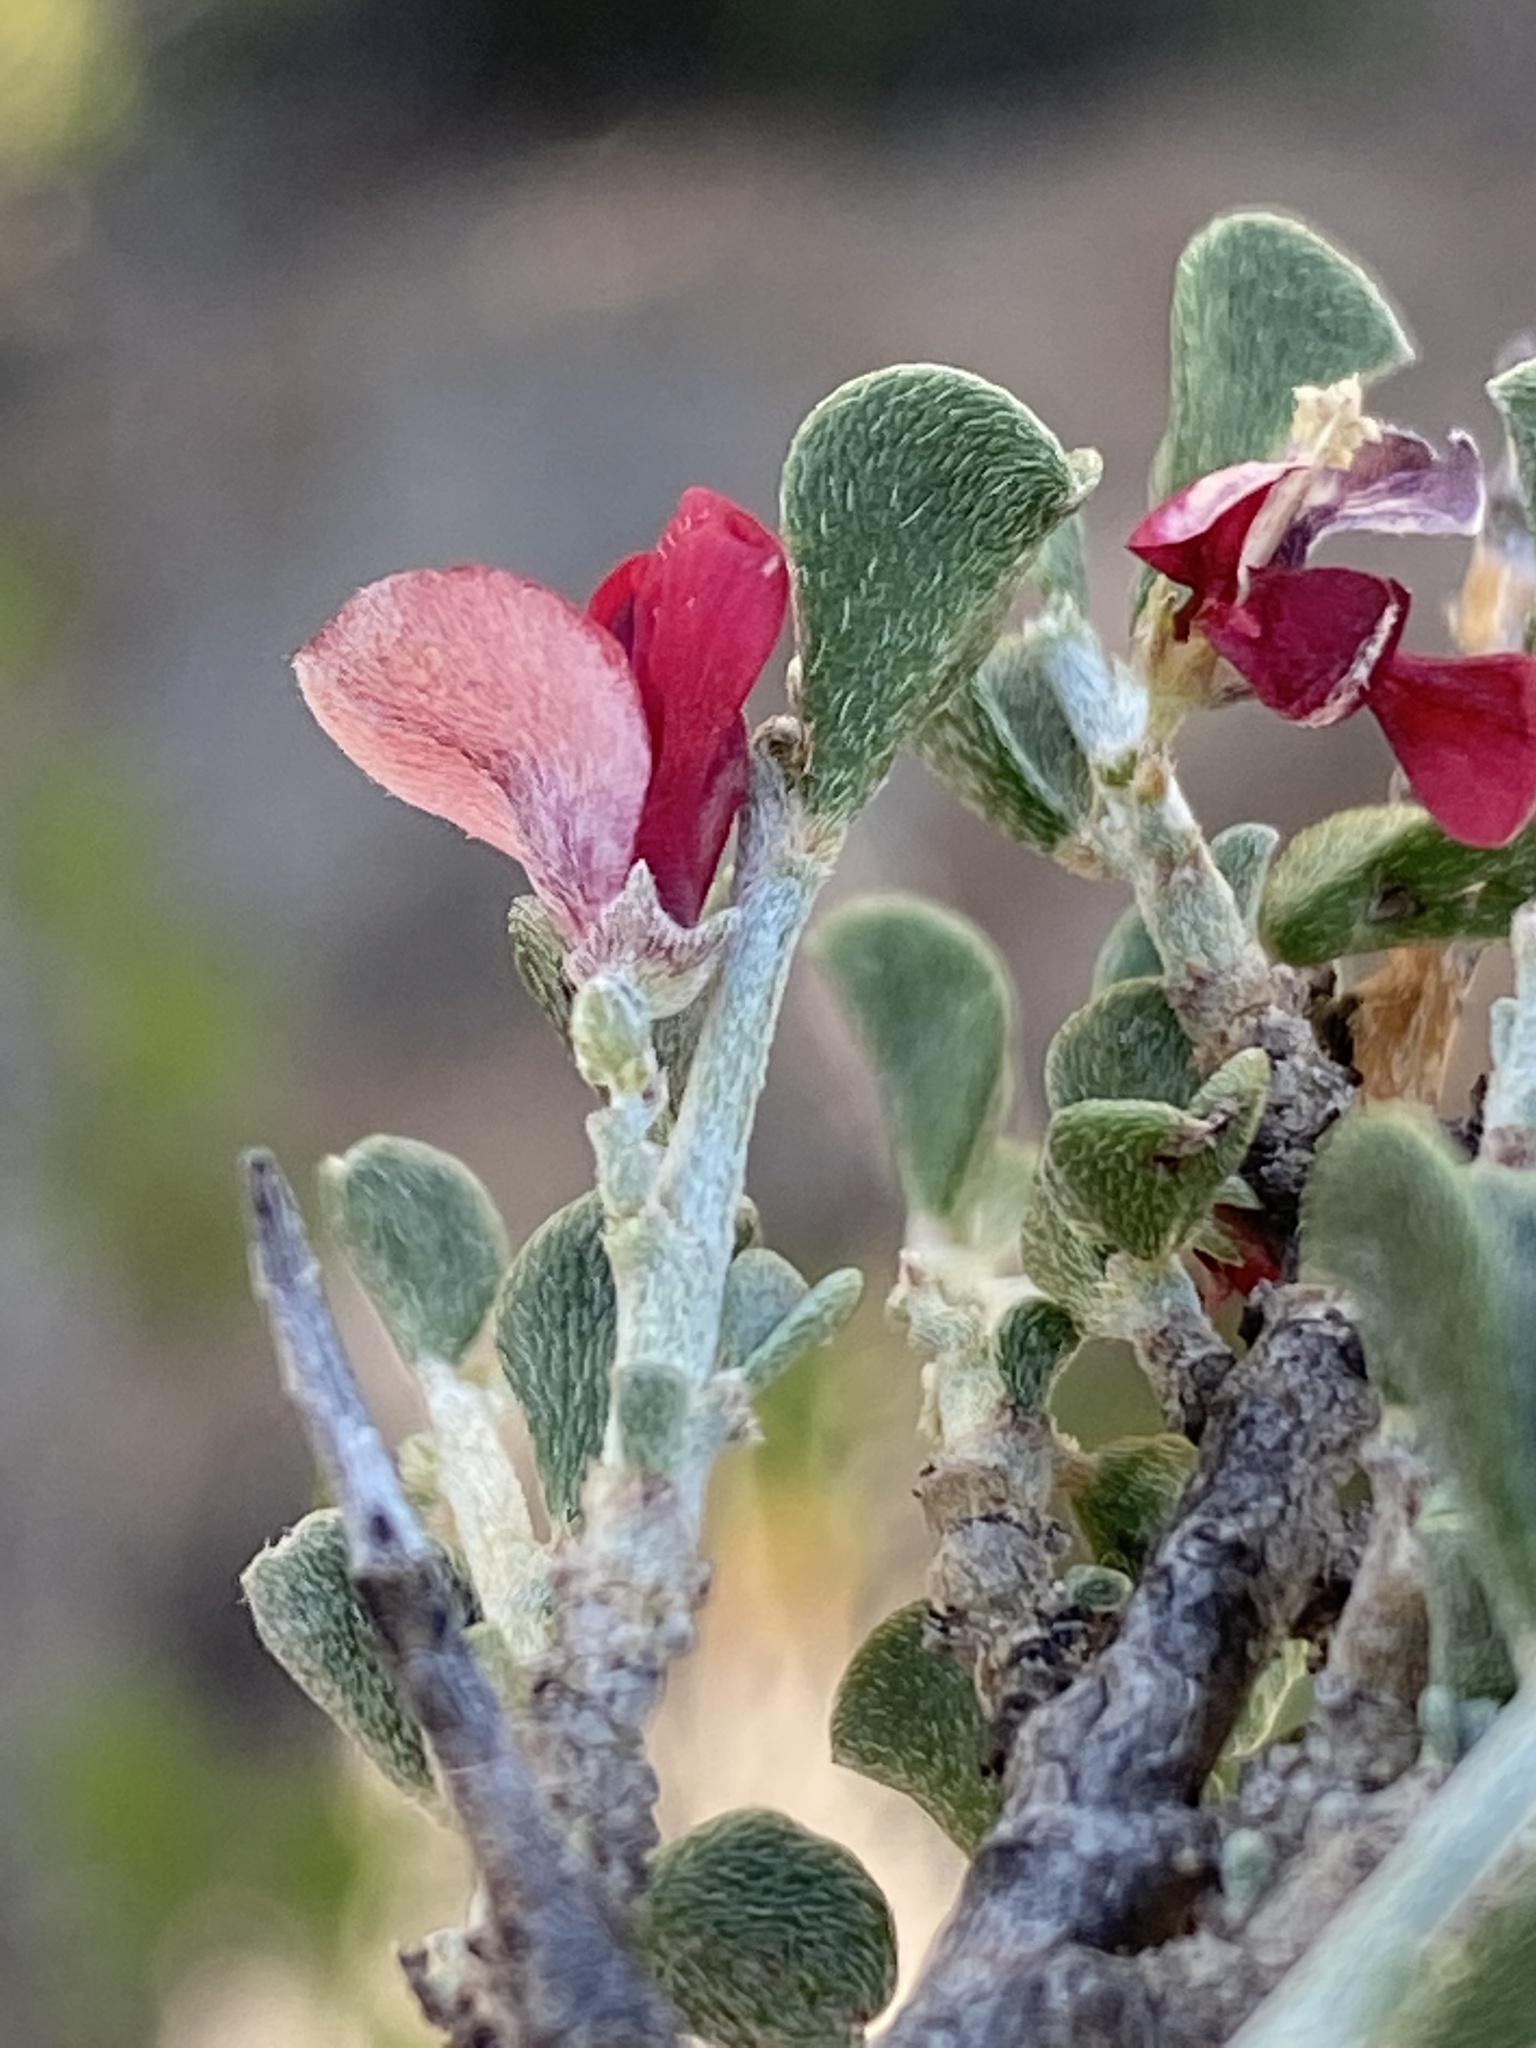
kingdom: Plantae
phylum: Tracheophyta
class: Magnoliopsida
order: Fabales
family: Fabaceae
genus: Indigofera
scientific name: Indigofera obcordata
